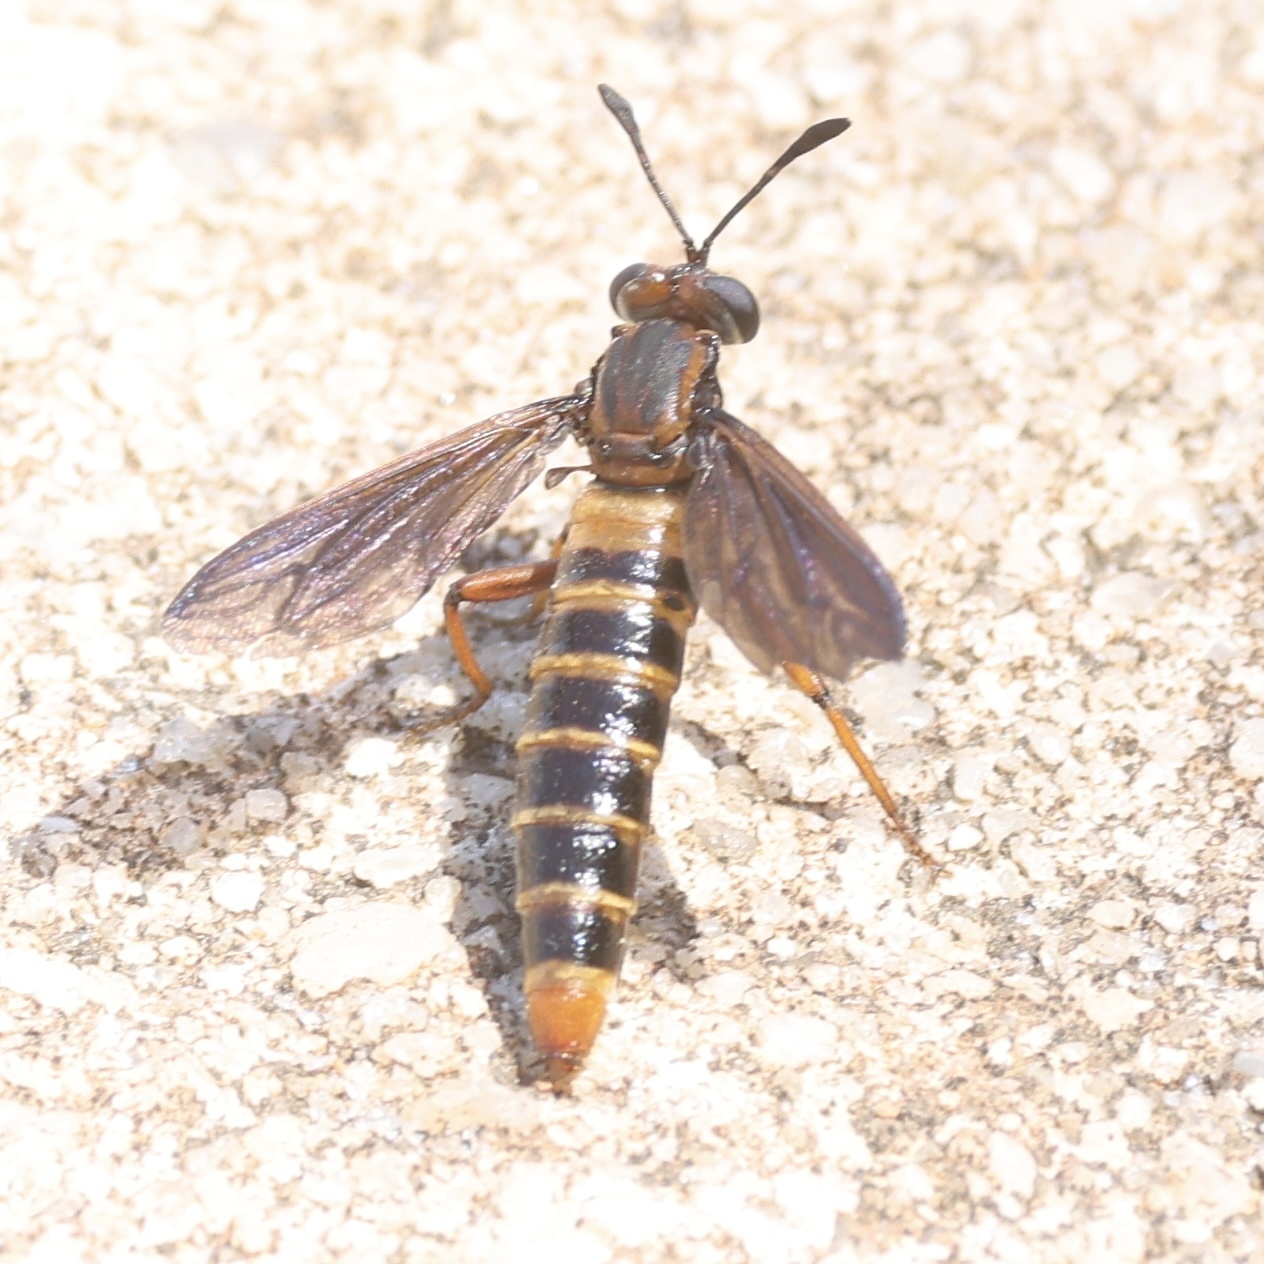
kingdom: Animalia
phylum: Arthropoda
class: Insecta
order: Diptera
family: Mydidae
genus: Phyllomydas
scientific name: Phyllomydas parvulus
